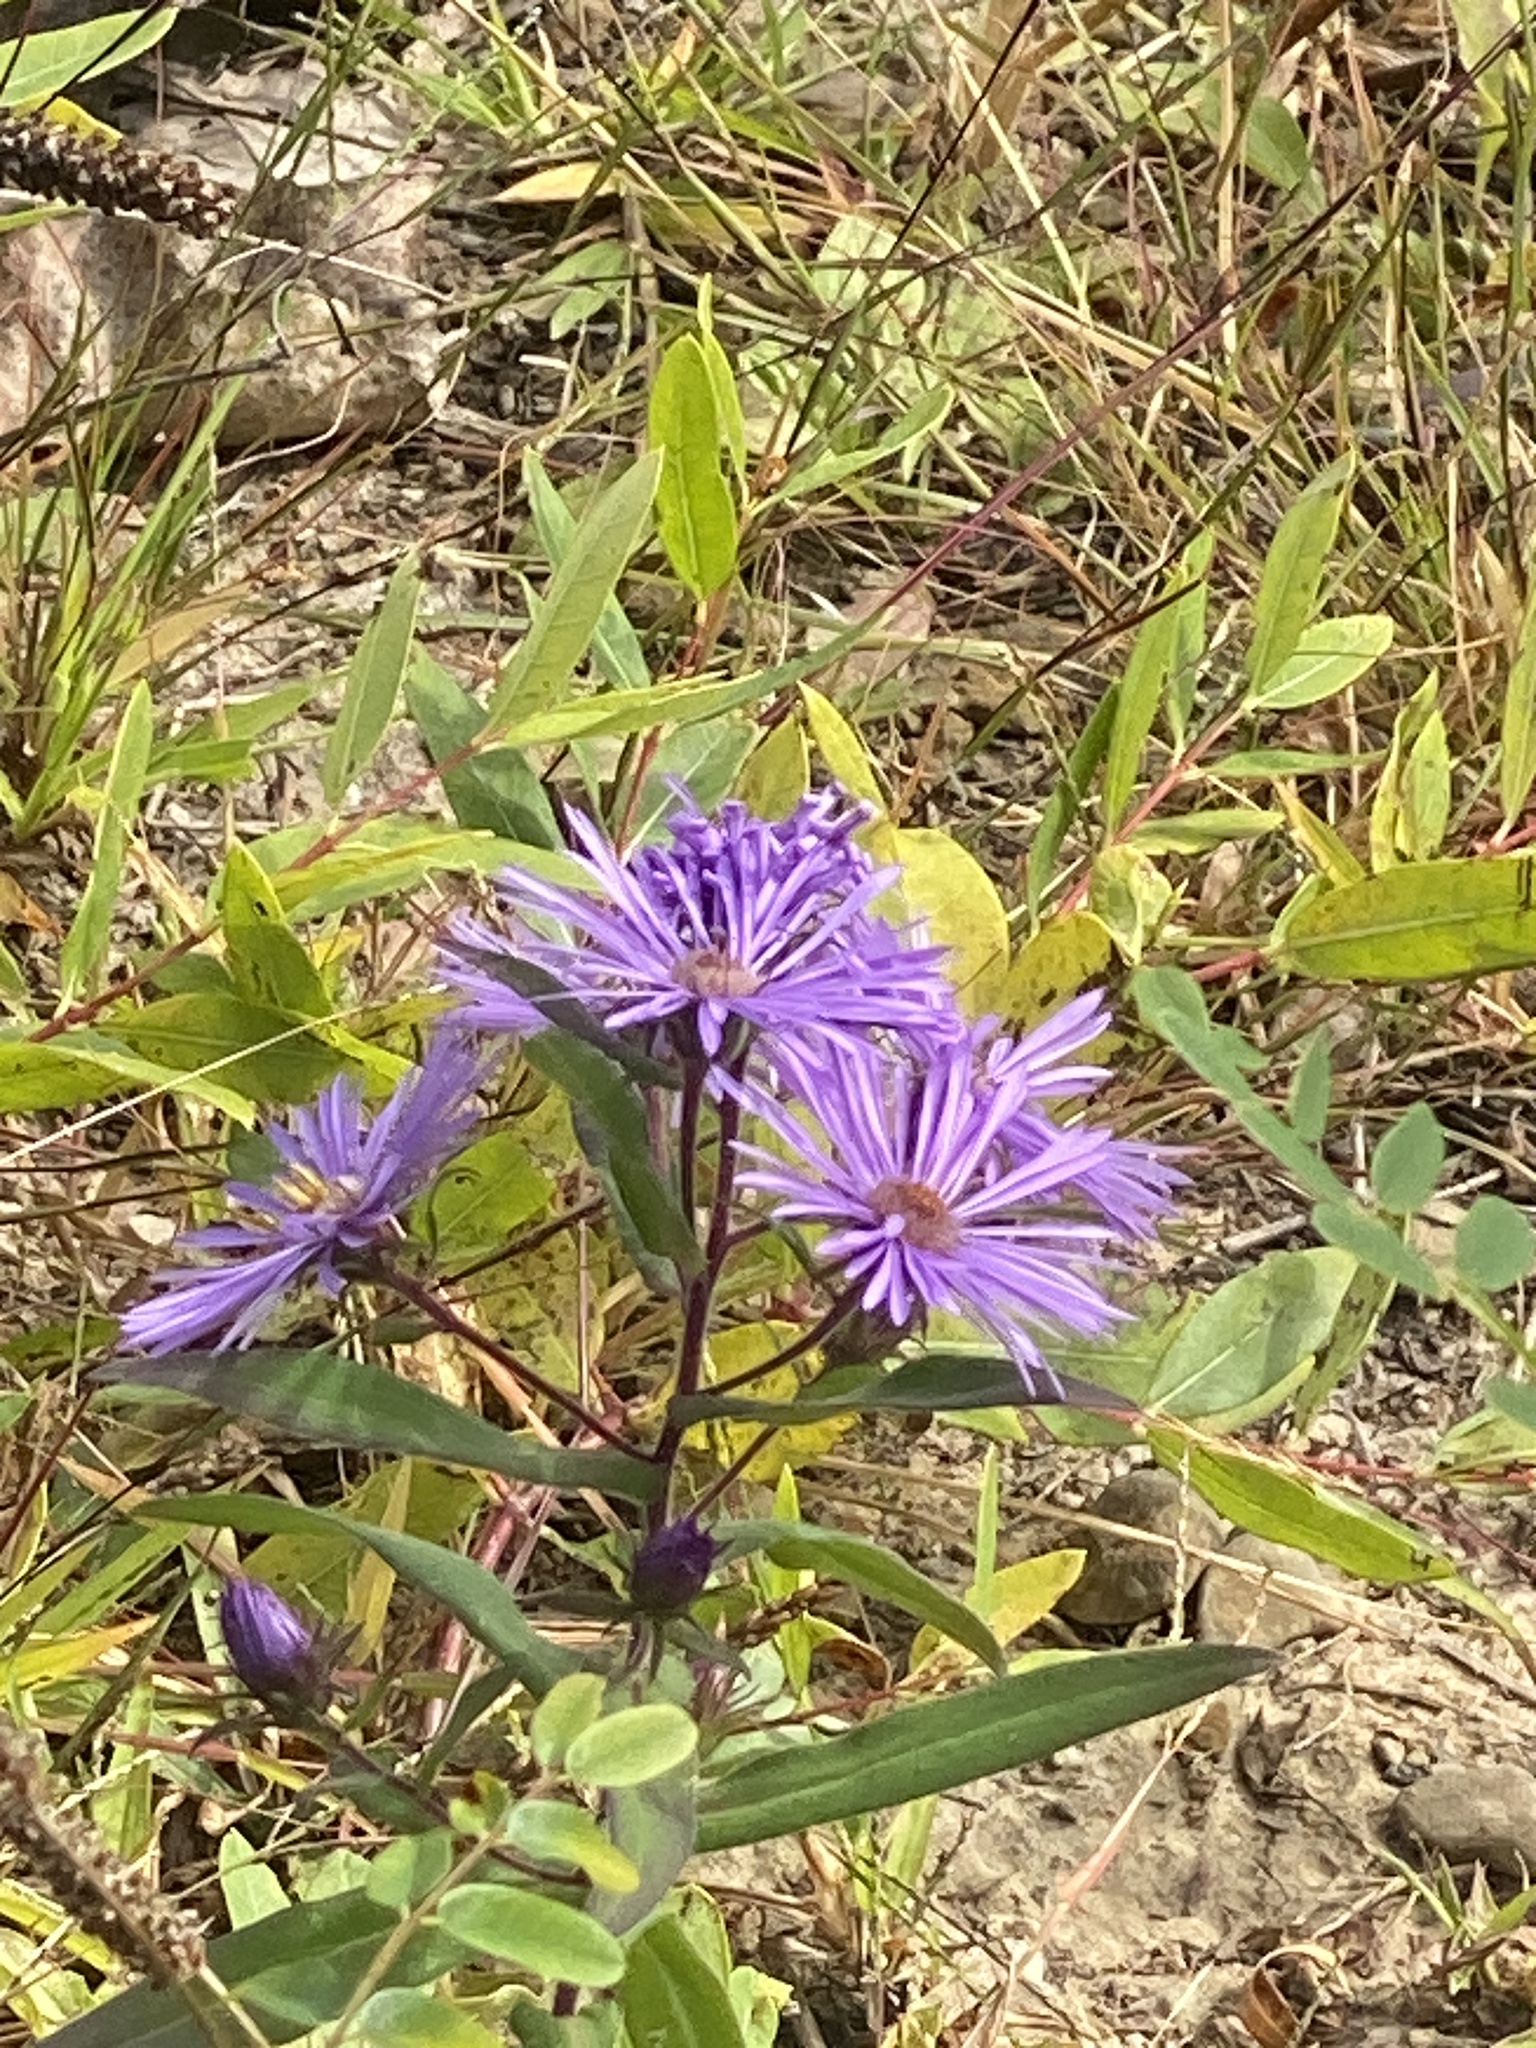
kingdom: Plantae
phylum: Tracheophyta
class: Magnoliopsida
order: Asterales
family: Asteraceae
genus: Symphyotrichum
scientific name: Symphyotrichum novae-angliae
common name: Michaelmas daisy
